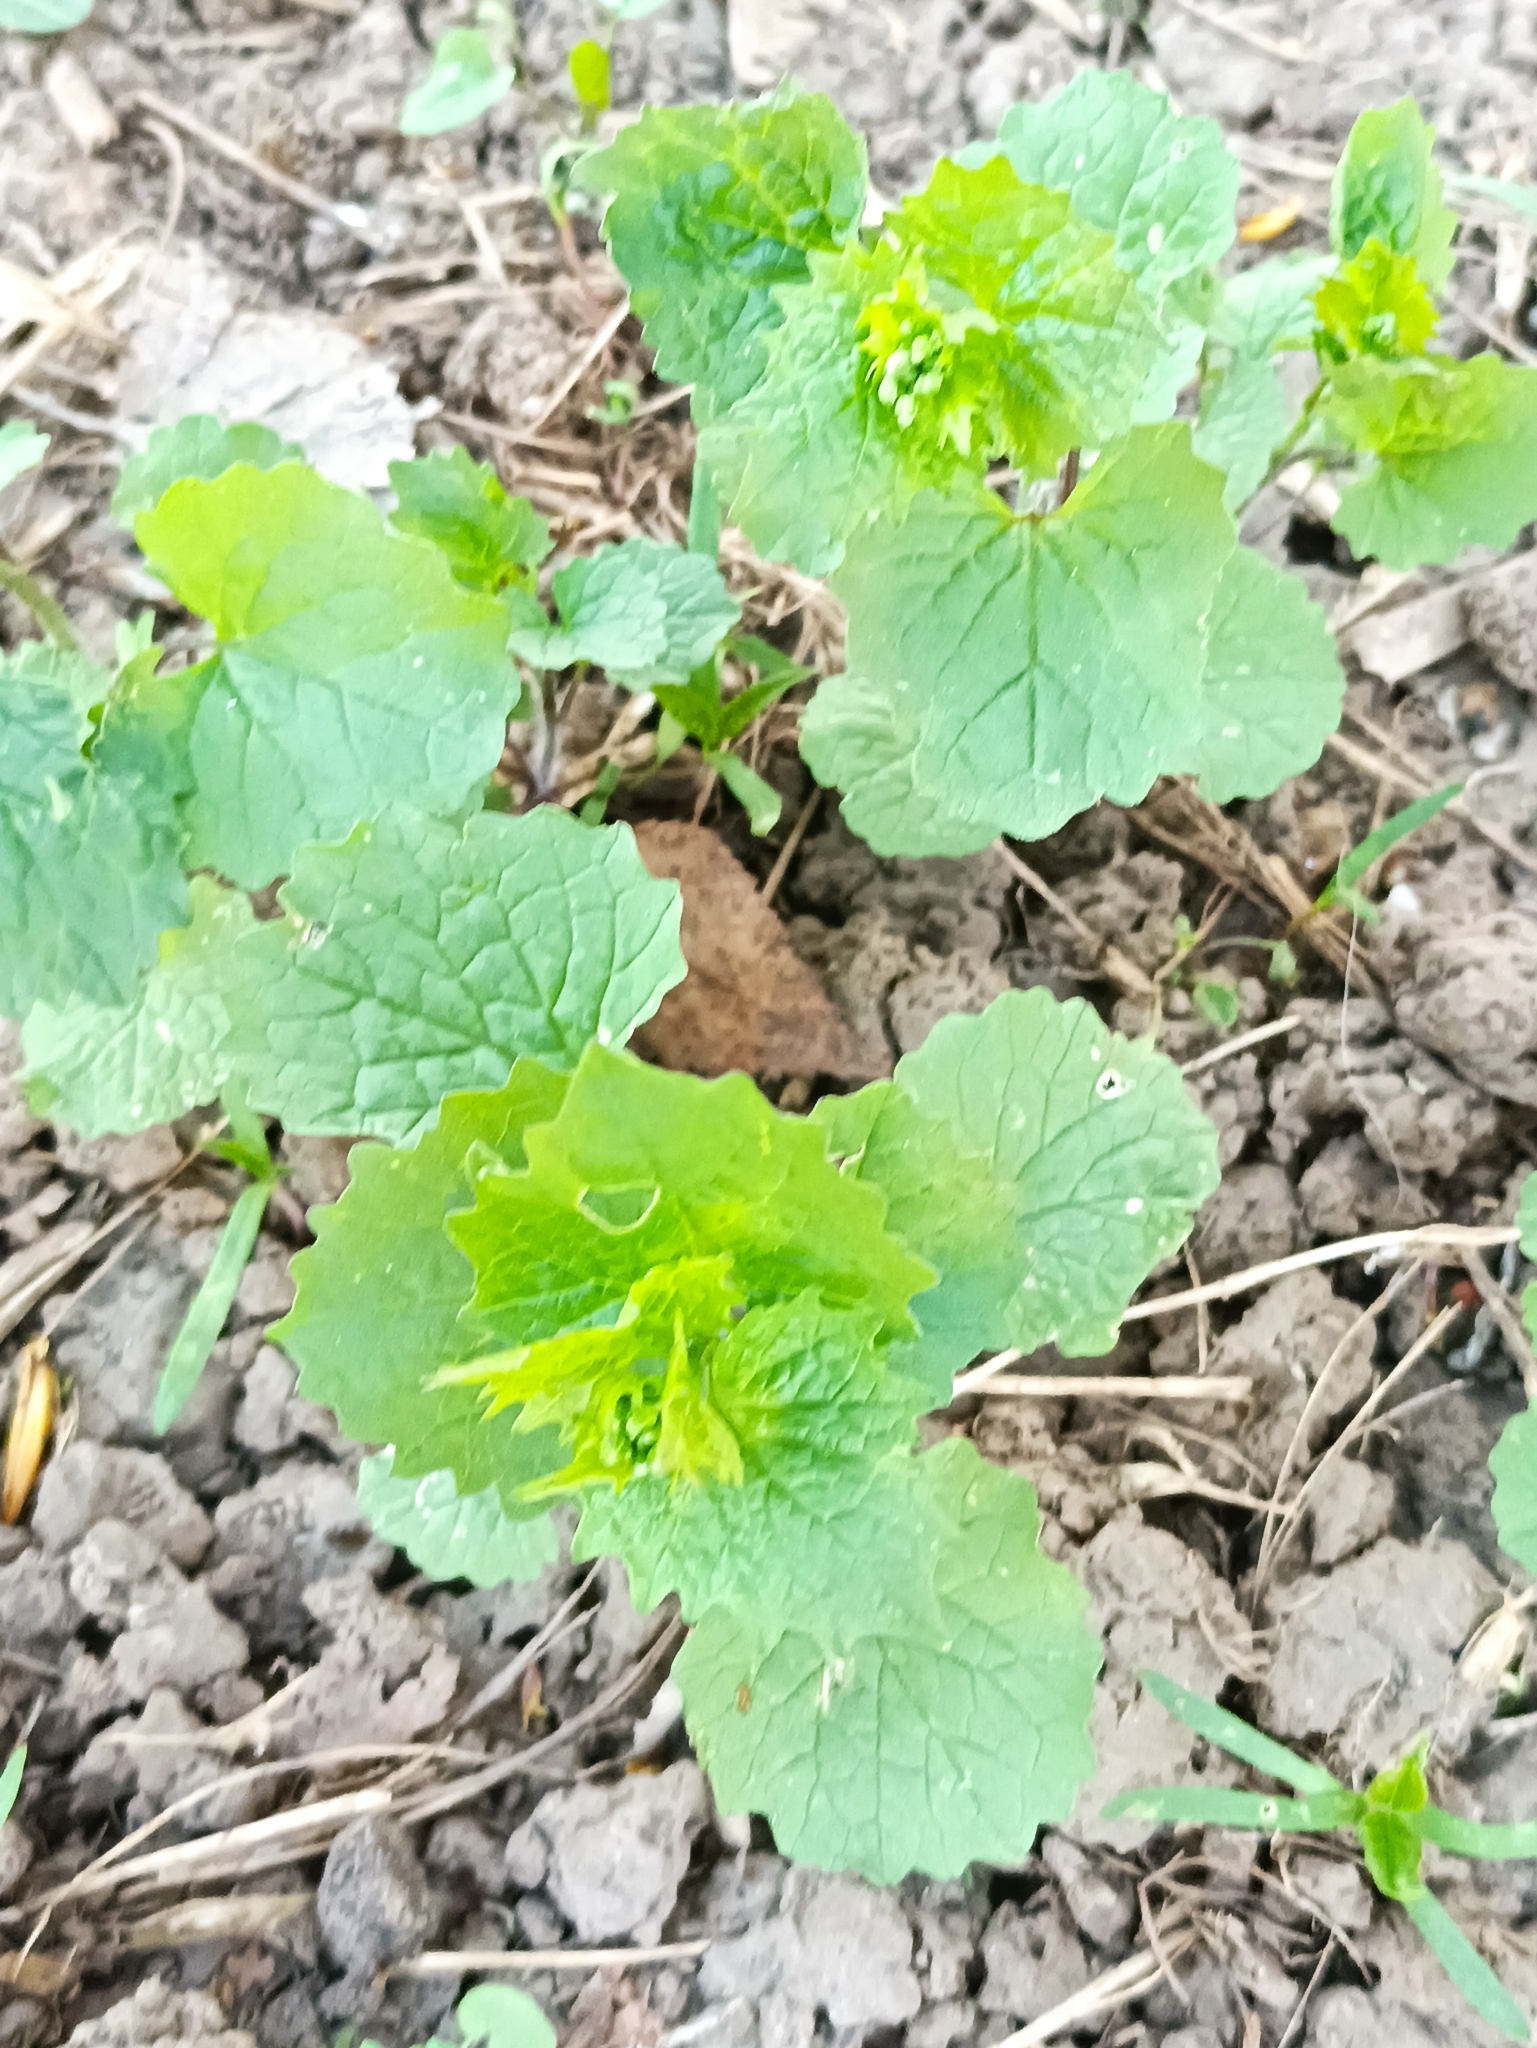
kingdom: Plantae
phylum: Tracheophyta
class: Magnoliopsida
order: Brassicales
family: Brassicaceae
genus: Alliaria
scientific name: Alliaria petiolata
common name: Garlic mustard
